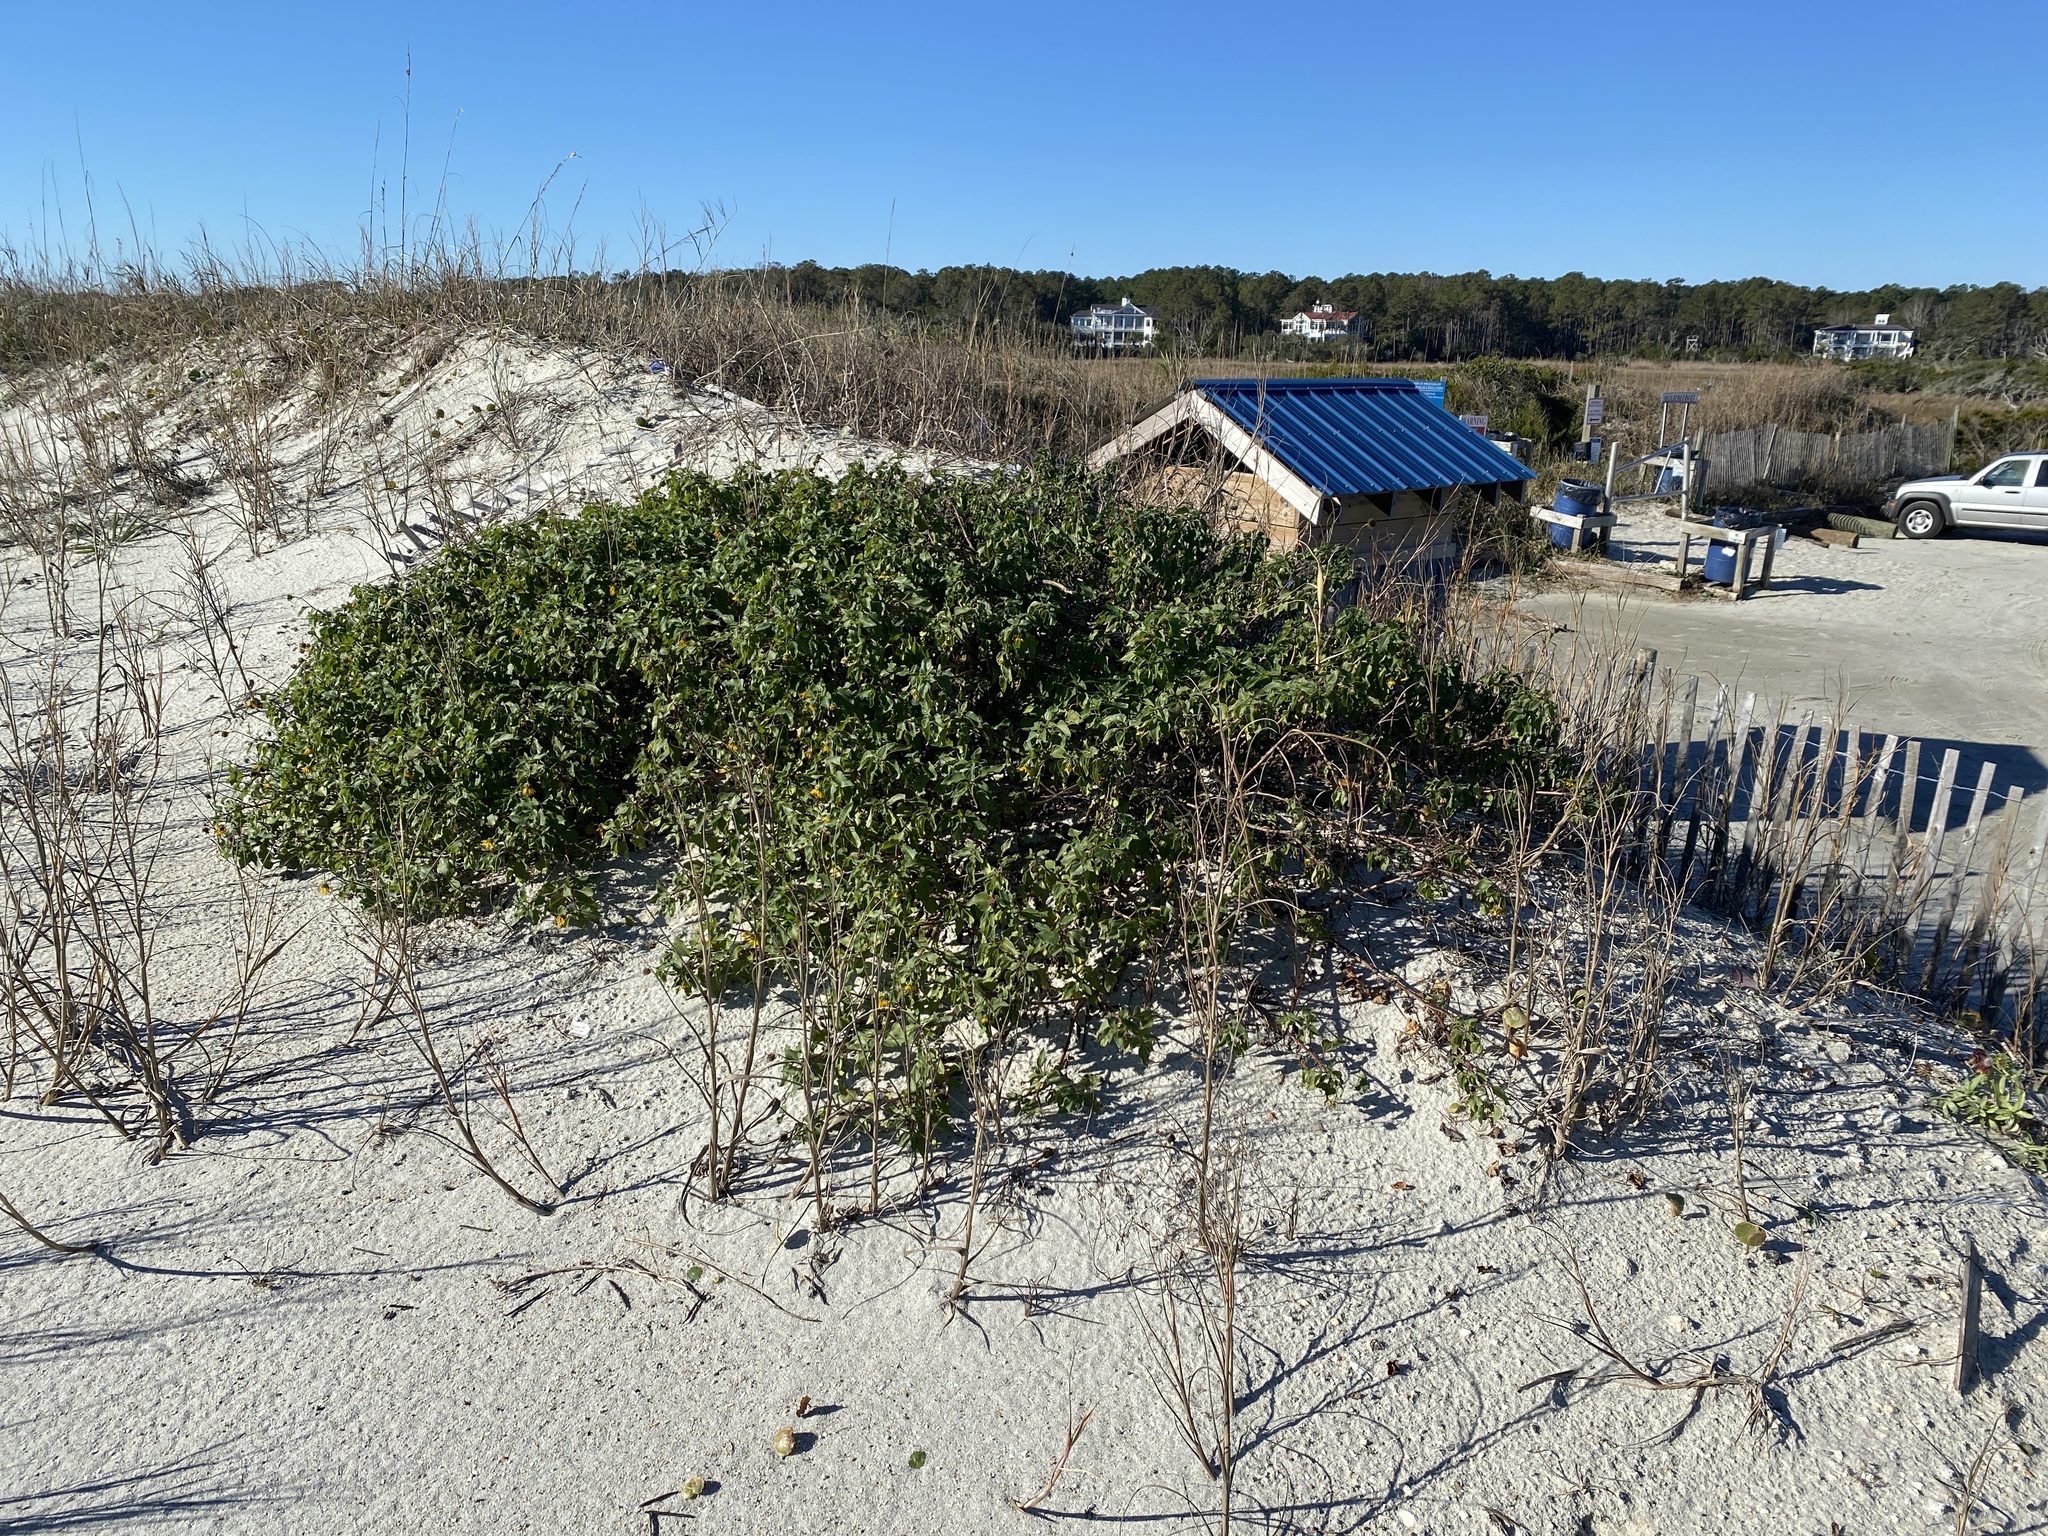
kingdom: Plantae
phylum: Tracheophyta
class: Magnoliopsida
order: Asterales
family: Asteraceae
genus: Helianthus
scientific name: Helianthus debilis
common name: Weak sunflower
